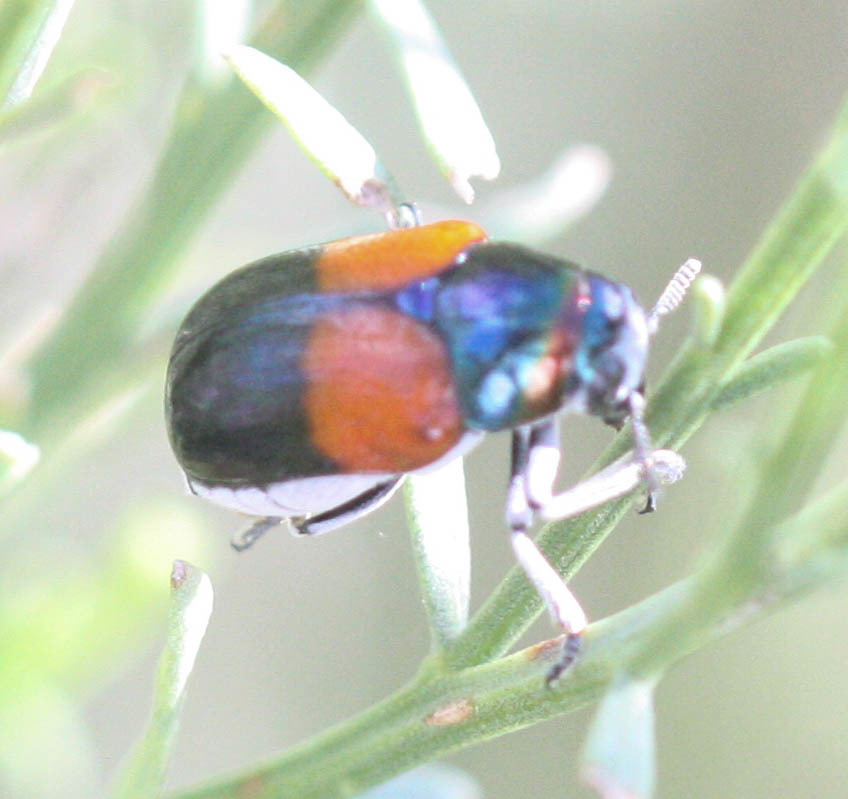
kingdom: Animalia
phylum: Arthropoda
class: Insecta
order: Coleoptera
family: Chrysomelidae
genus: Megalostomis
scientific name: Megalostomis pyropyga
